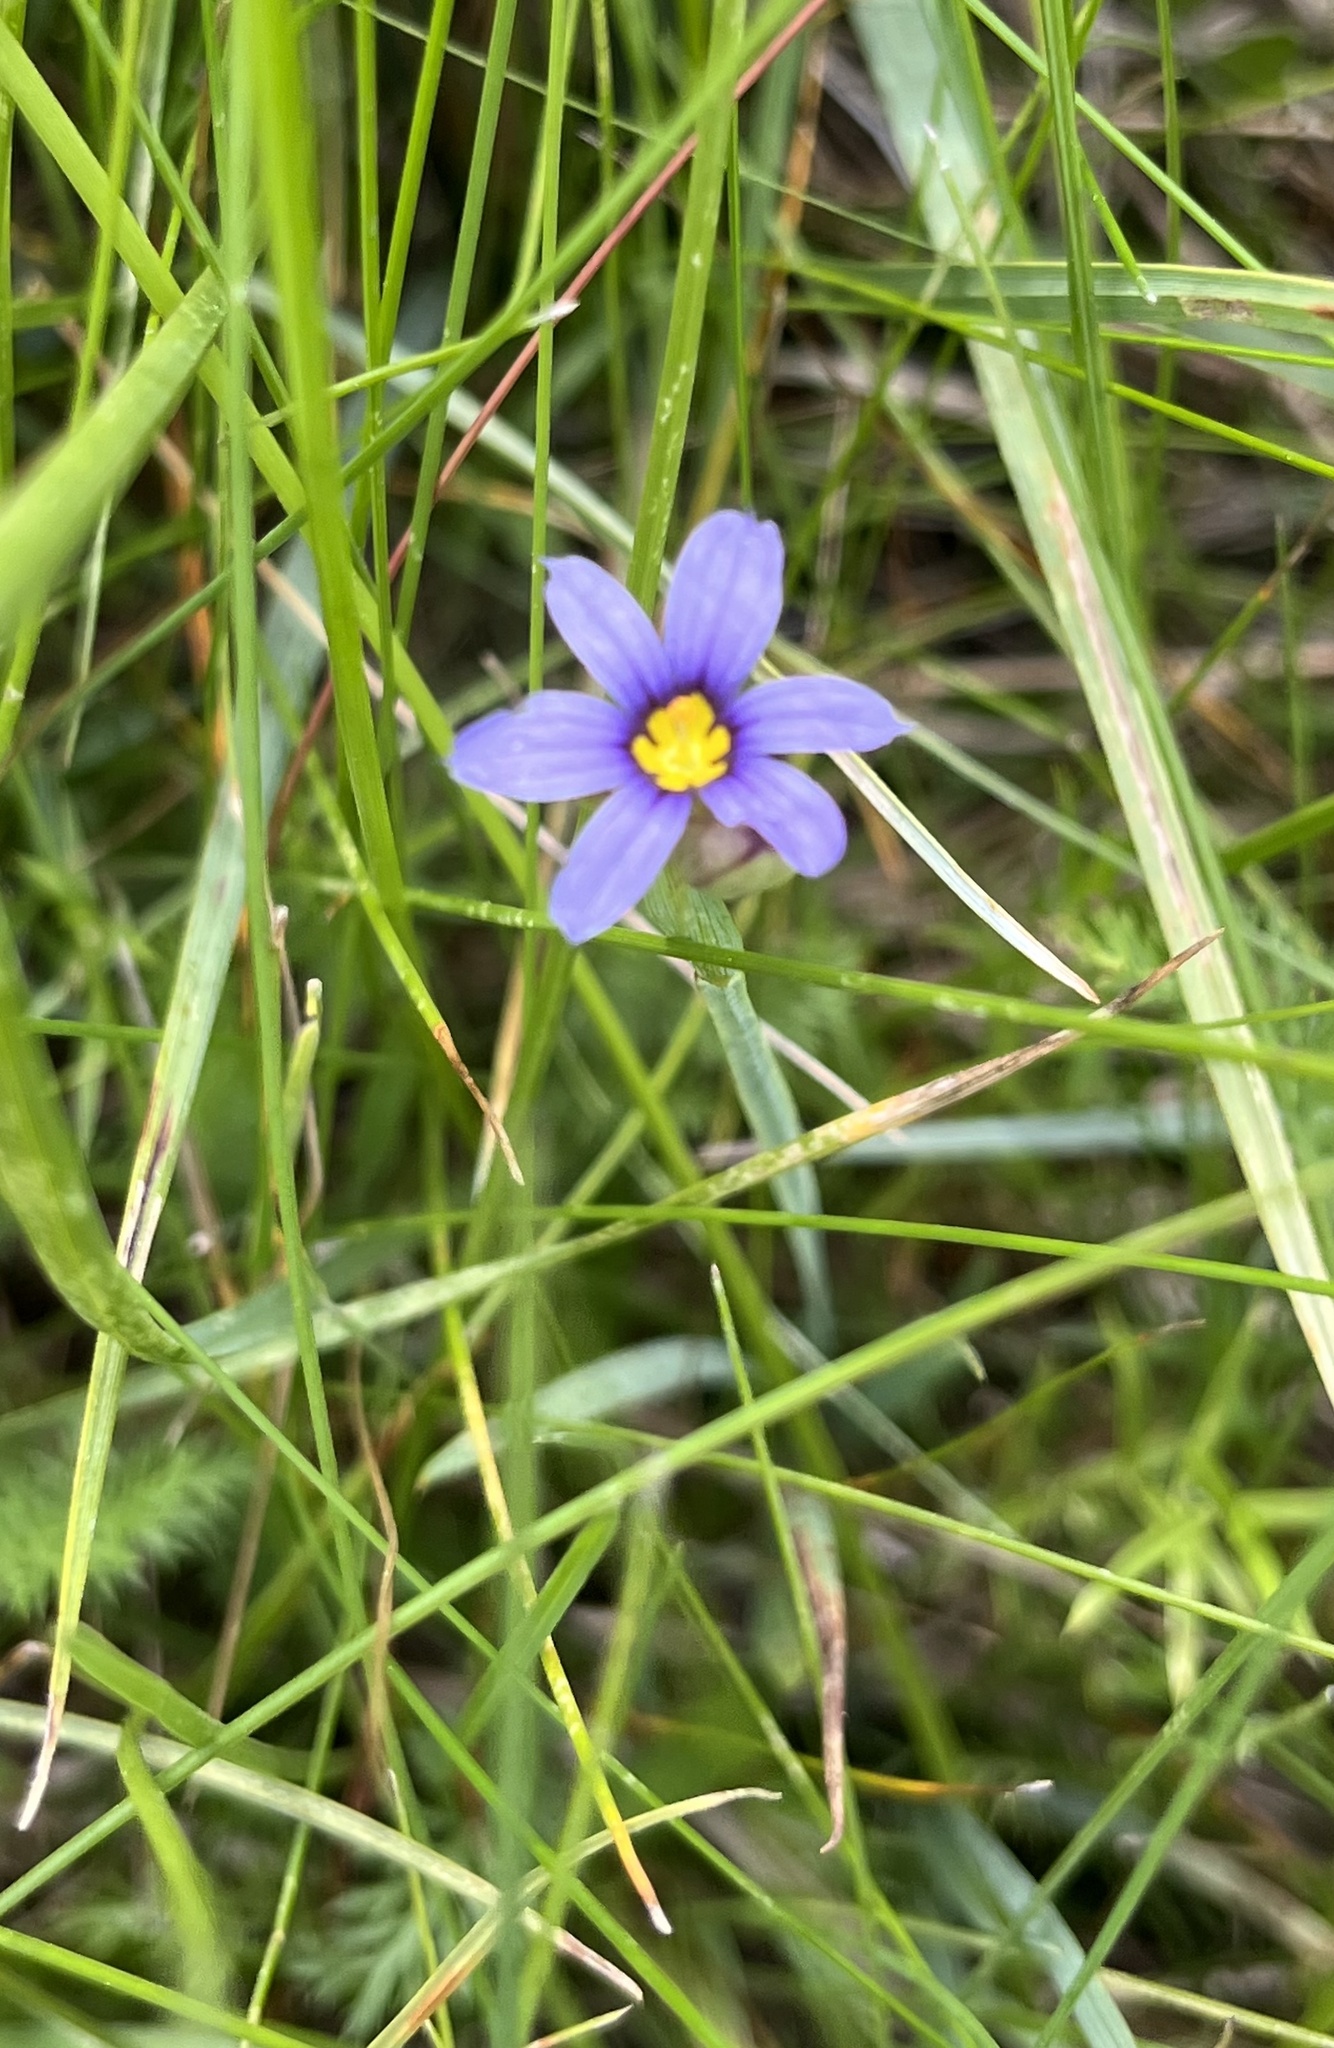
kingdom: Plantae
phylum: Tracheophyta
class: Liliopsida
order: Asparagales
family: Iridaceae
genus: Sisyrinchium
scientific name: Sisyrinchium bellum
